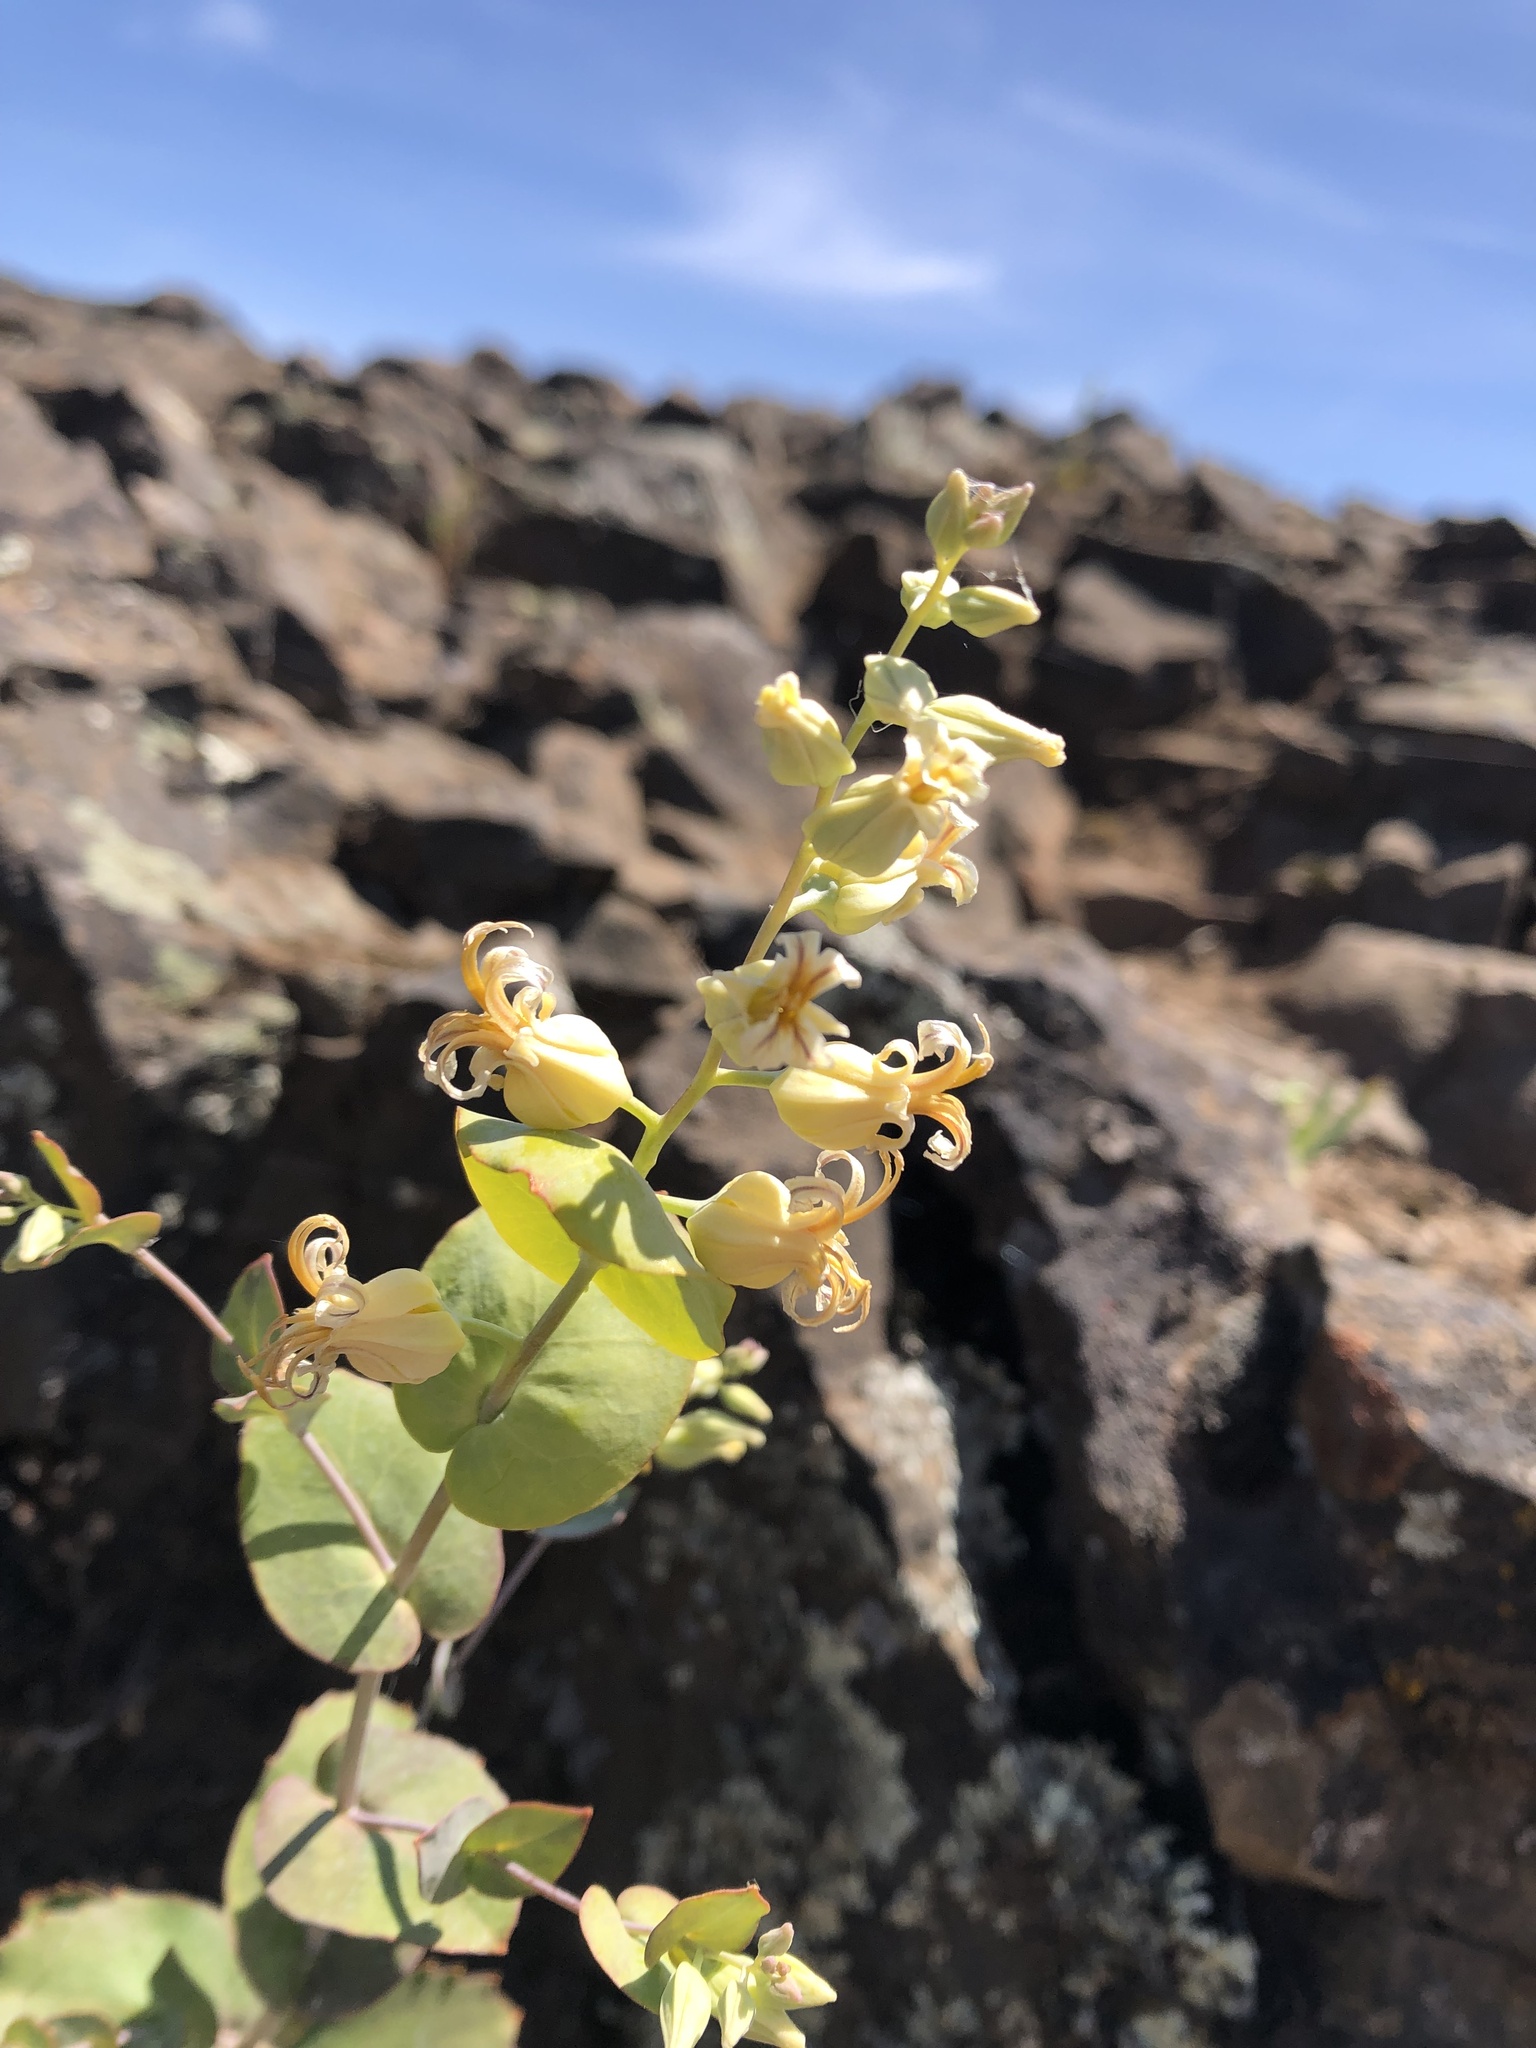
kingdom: Plantae
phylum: Tracheophyta
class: Magnoliopsida
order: Brassicales
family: Brassicaceae
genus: Streptanthus
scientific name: Streptanthus tortuosus
